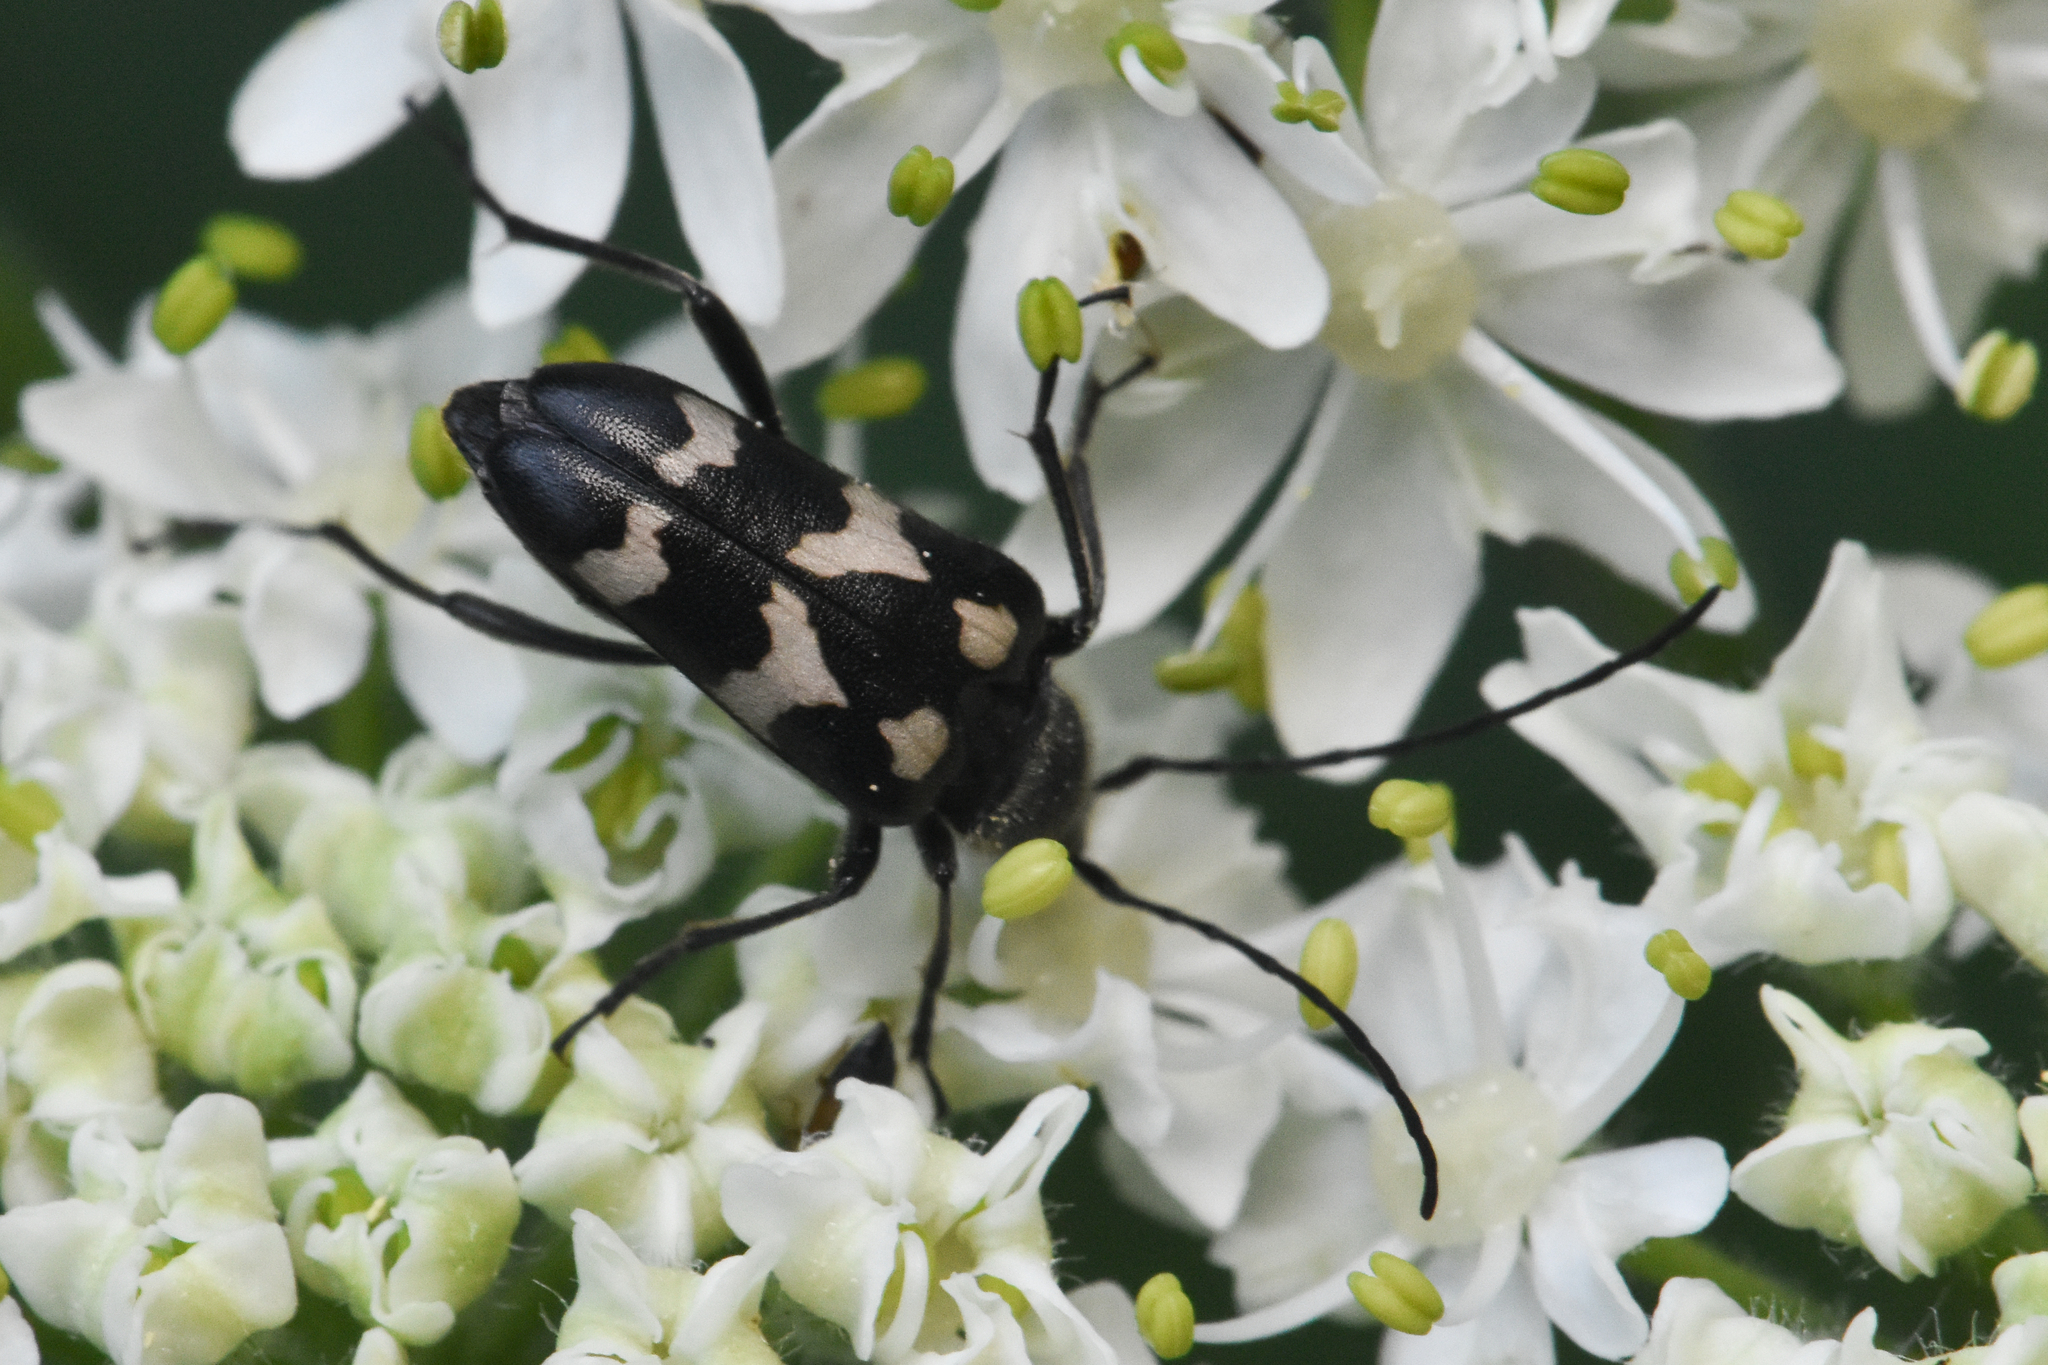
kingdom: Animalia
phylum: Arthropoda
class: Insecta
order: Coleoptera
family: Cerambycidae
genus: Judolia
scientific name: Judolia montivagans
